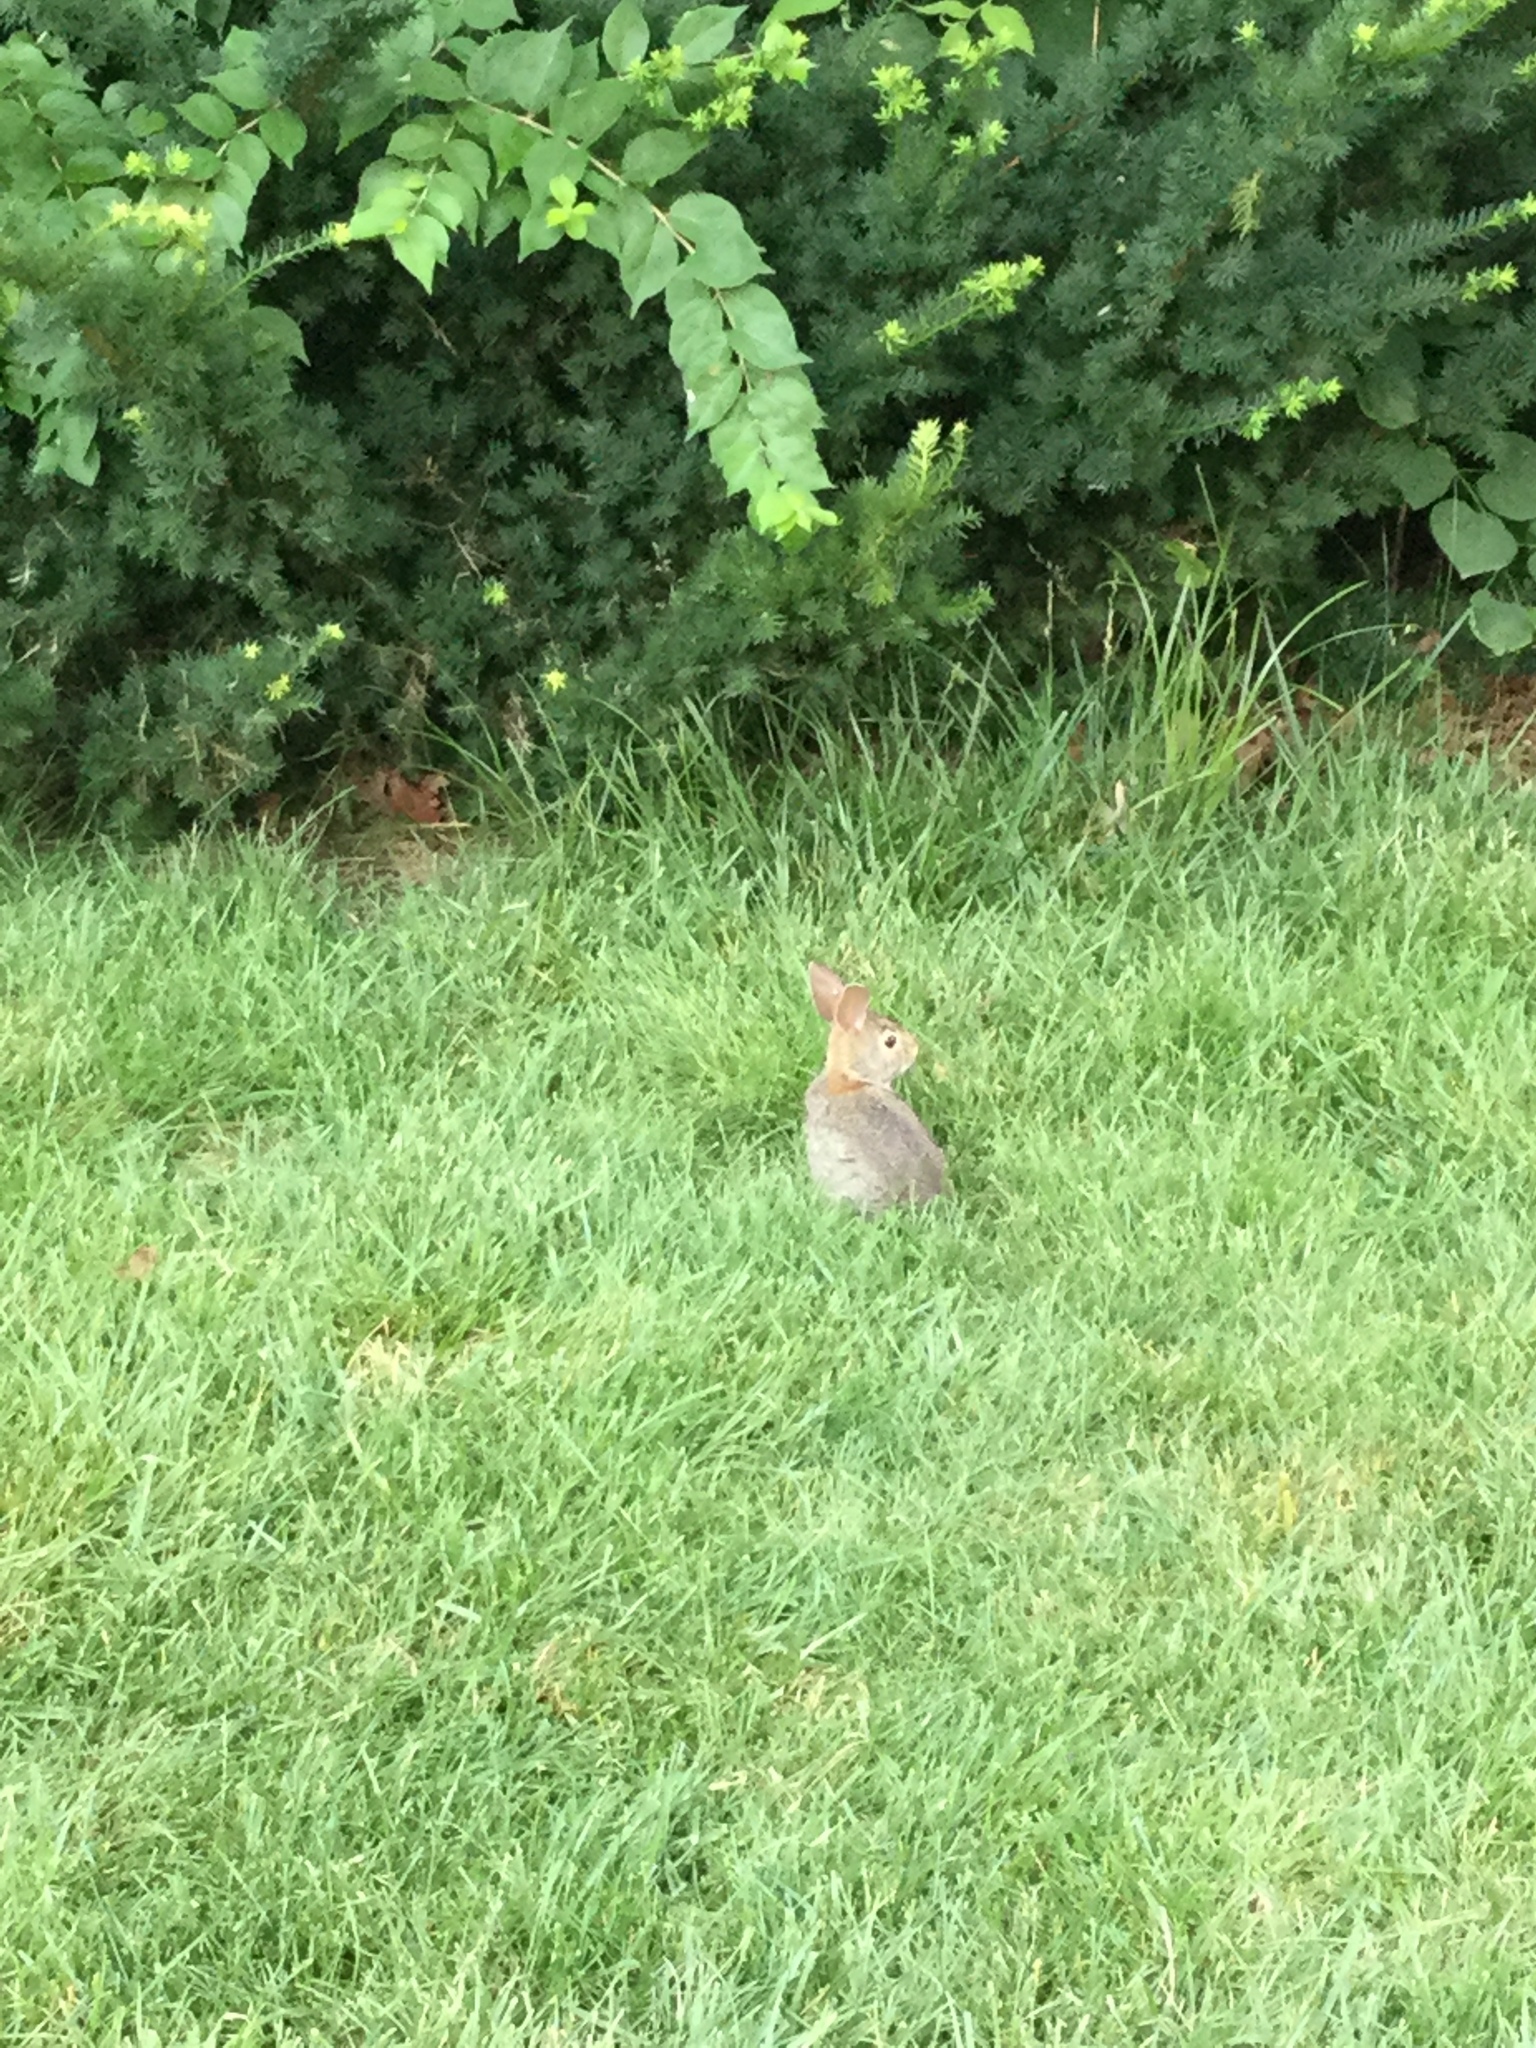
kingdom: Animalia
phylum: Chordata
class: Mammalia
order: Lagomorpha
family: Leporidae
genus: Sylvilagus
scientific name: Sylvilagus floridanus
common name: Eastern cottontail
